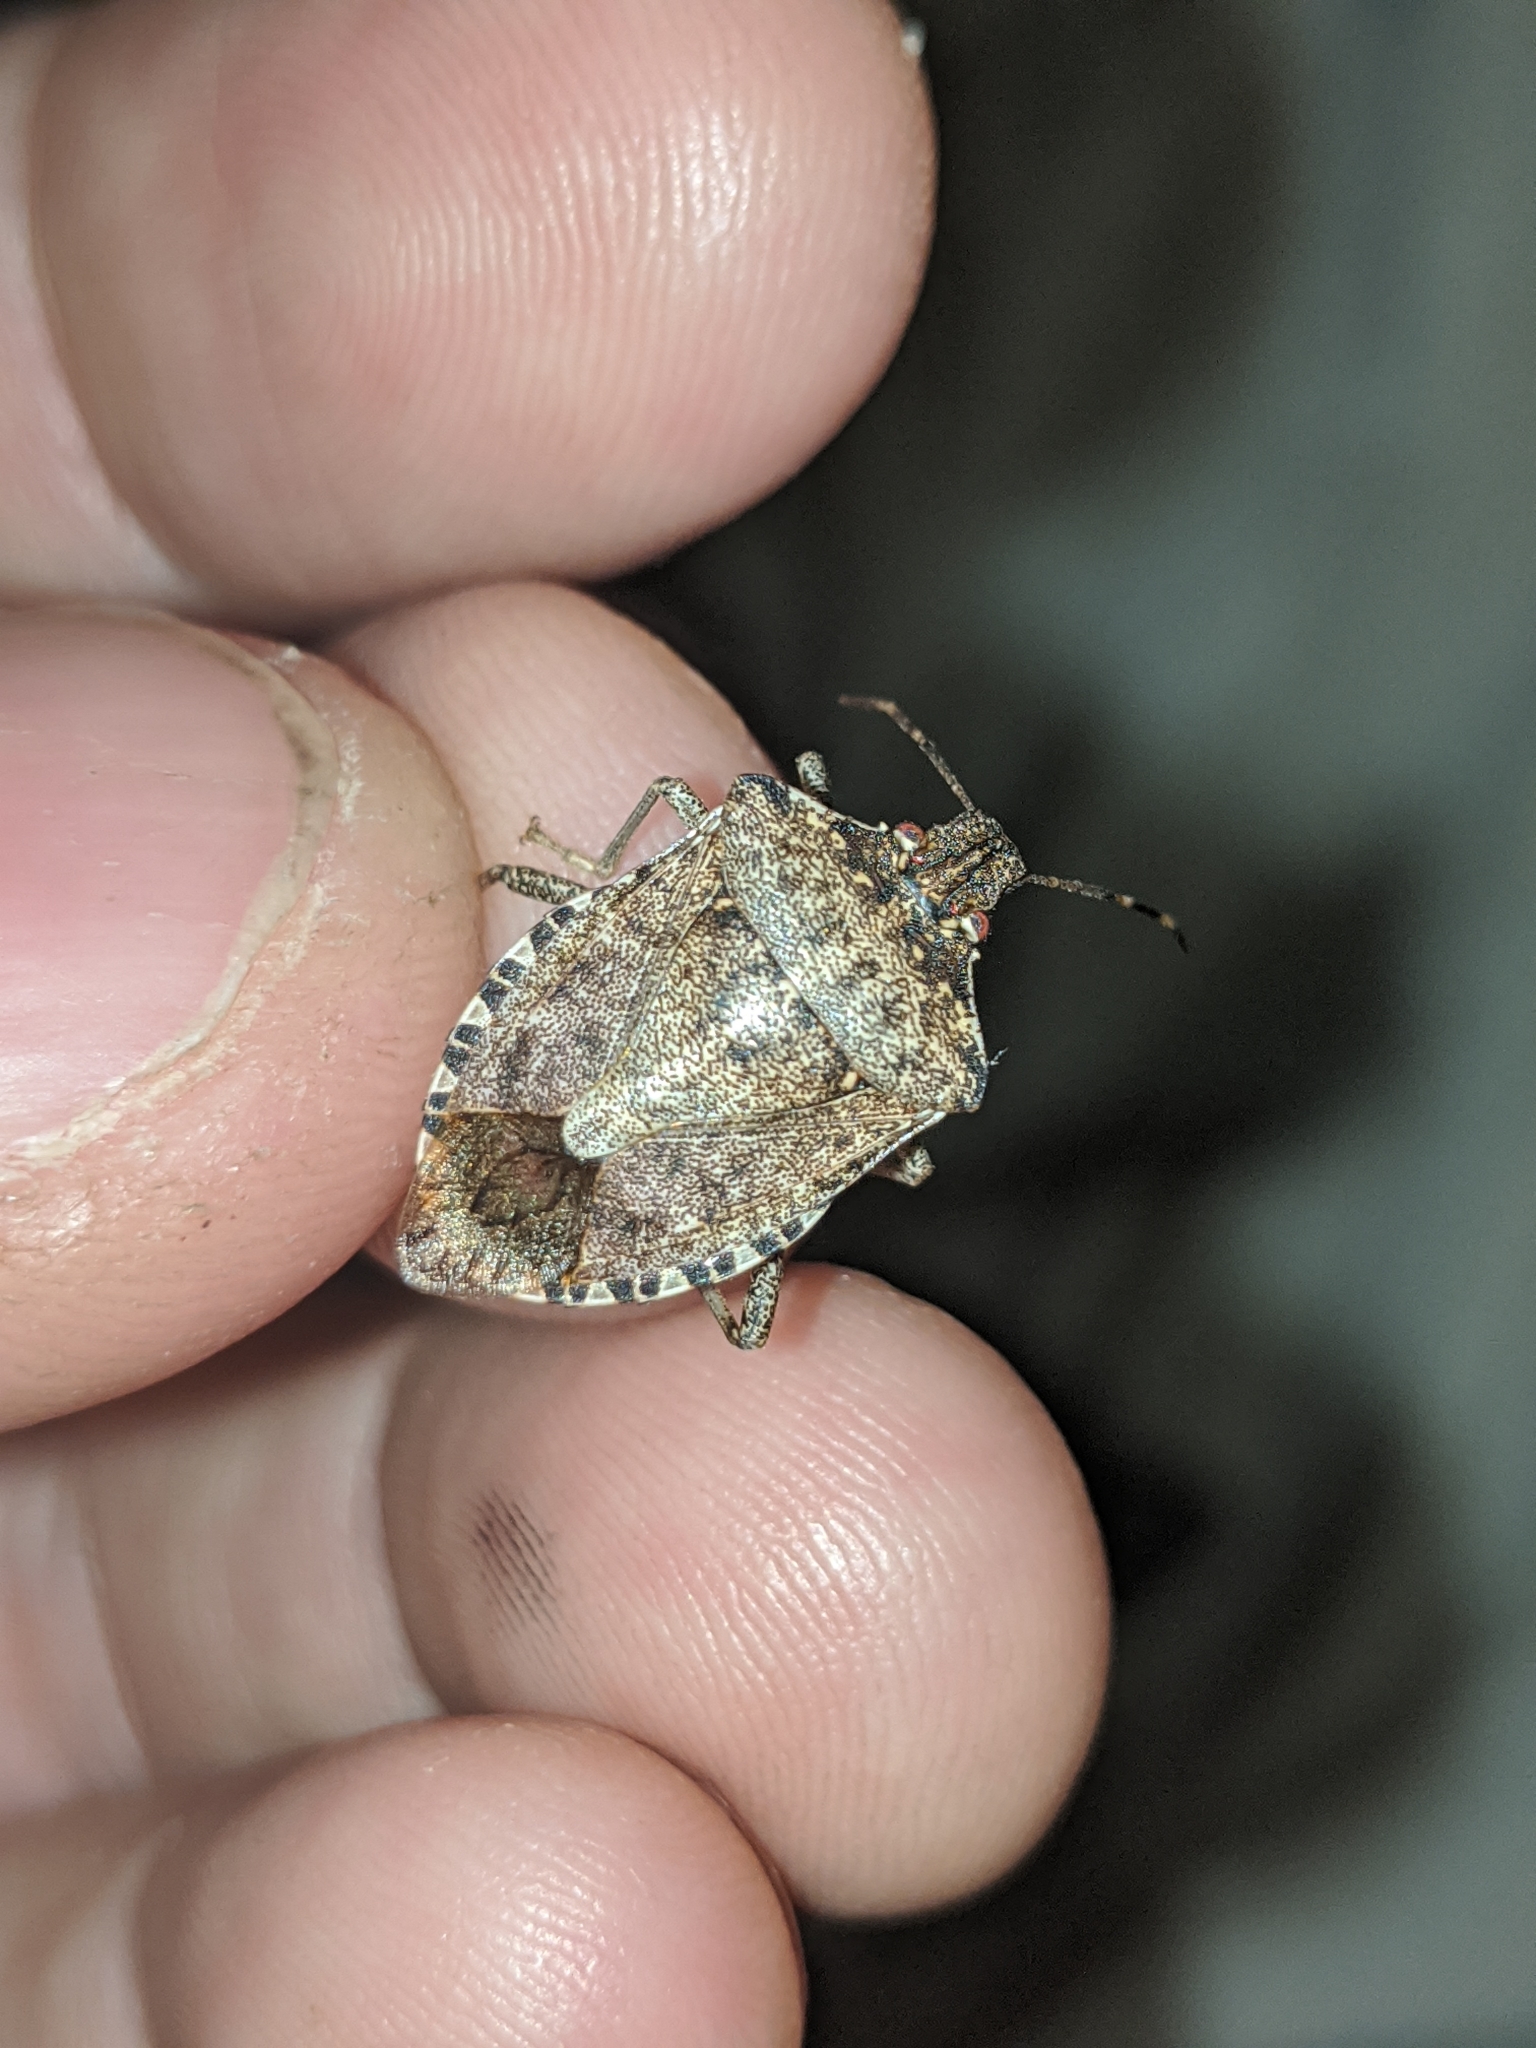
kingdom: Animalia
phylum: Arthropoda
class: Insecta
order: Hemiptera
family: Pentatomidae
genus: Halyomorpha
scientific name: Halyomorpha halys
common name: Brown marmorated stink bug
